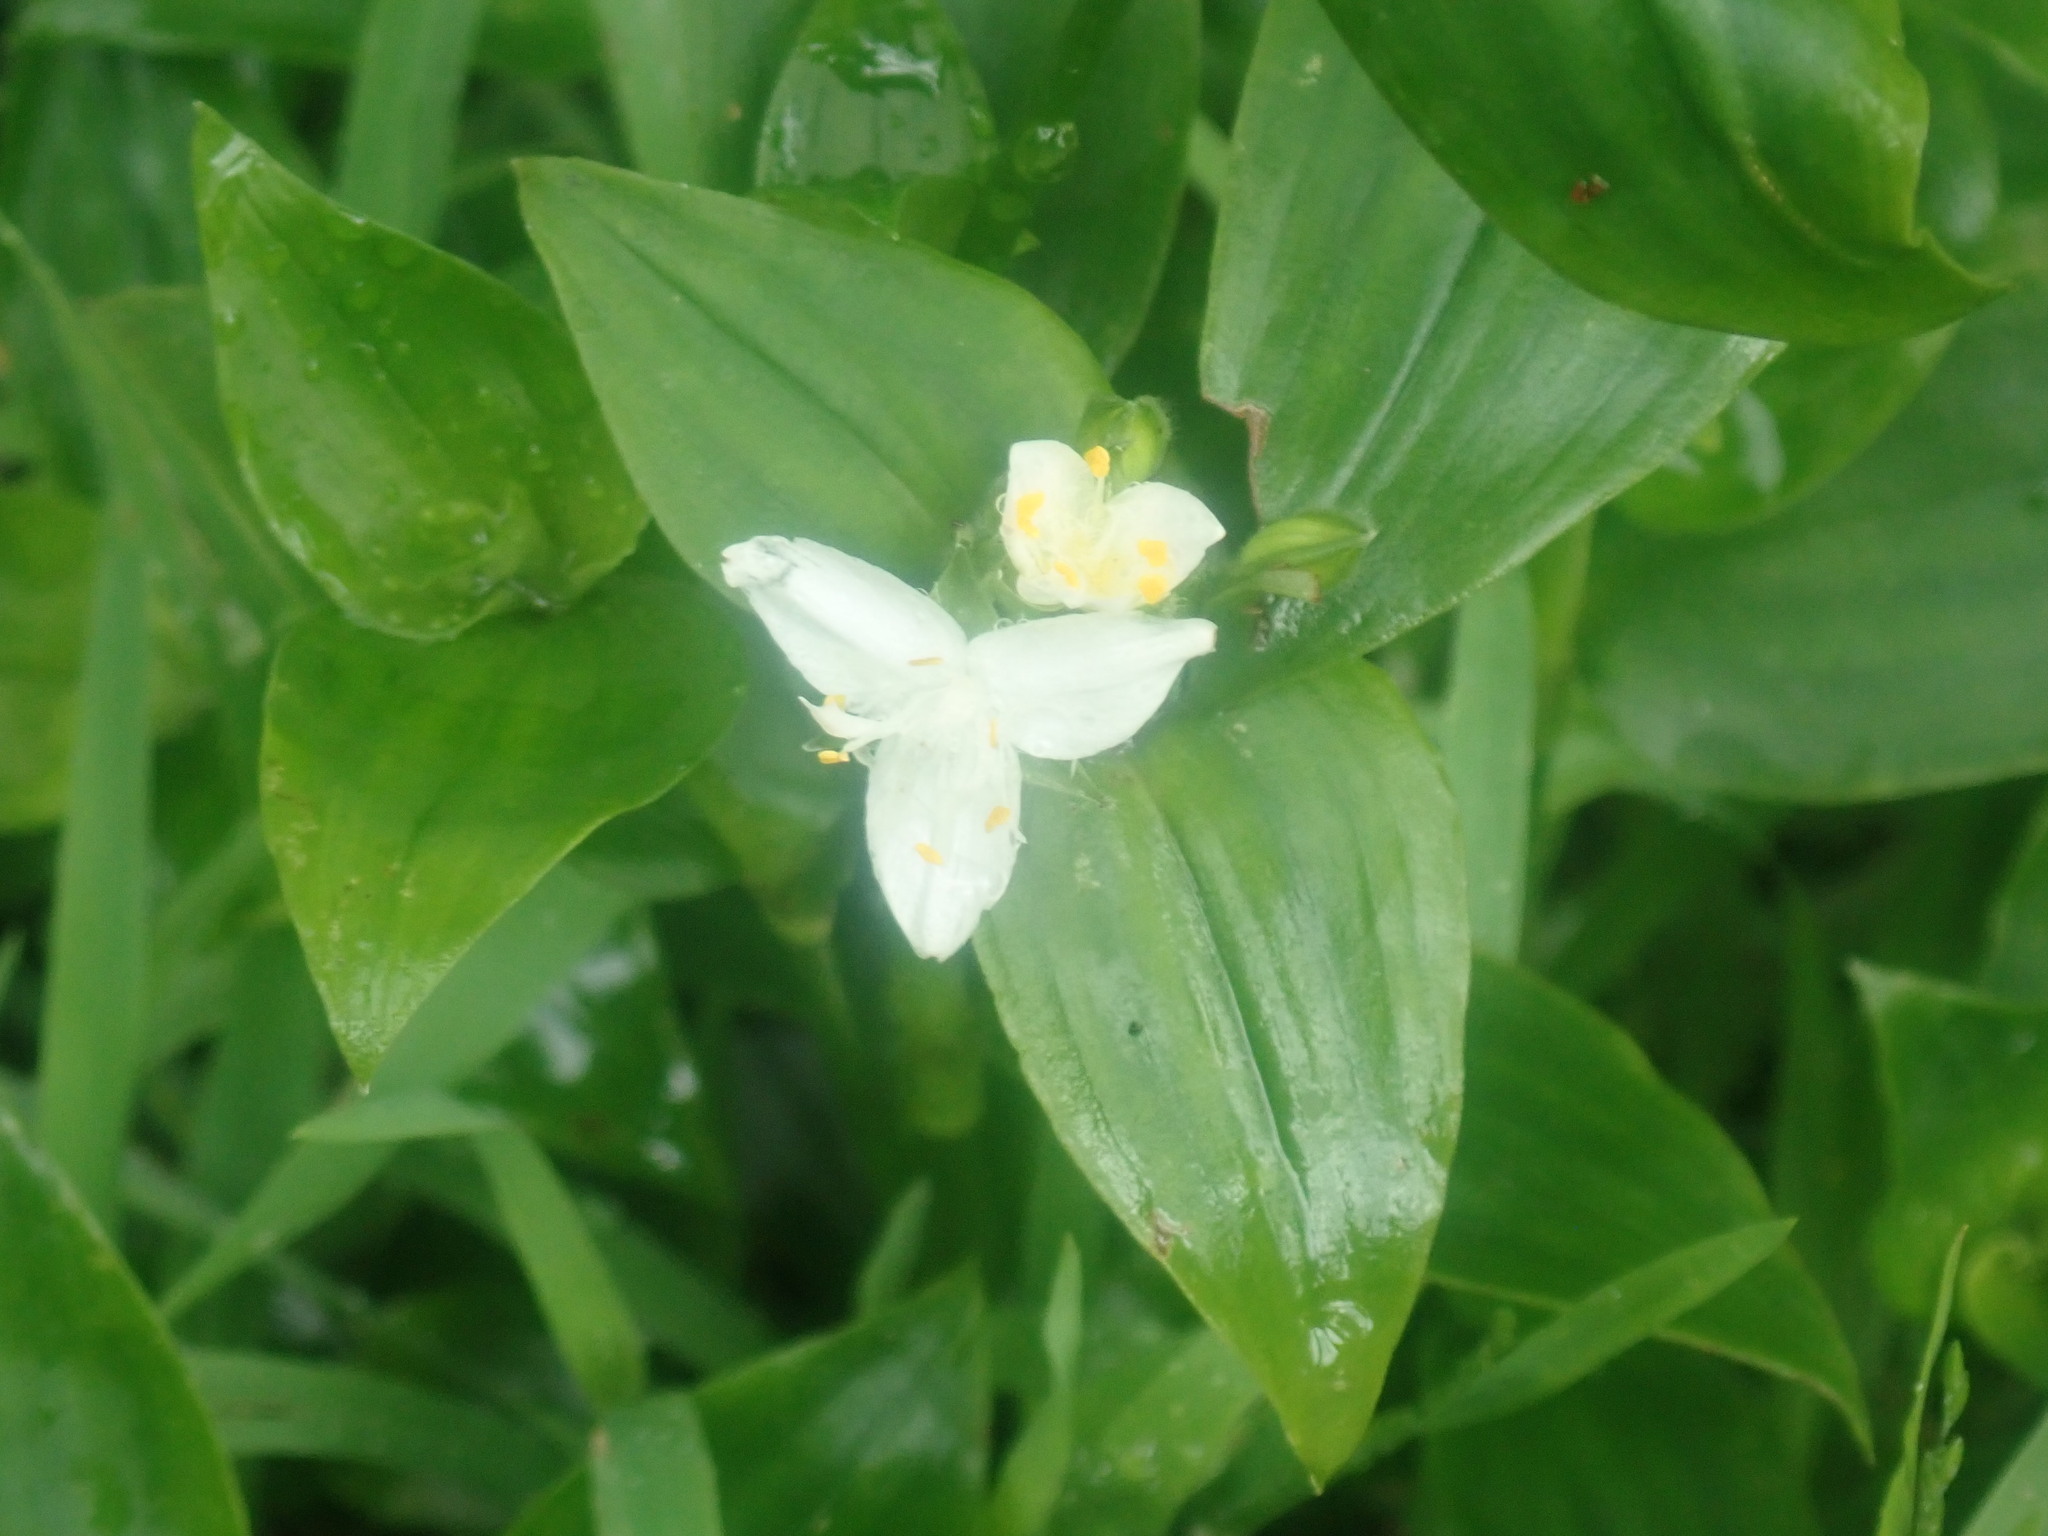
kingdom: Plantae
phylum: Tracheophyta
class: Liliopsida
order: Commelinales
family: Commelinaceae
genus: Tradescantia
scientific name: Tradescantia fluminensis
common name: Wandering-jew
